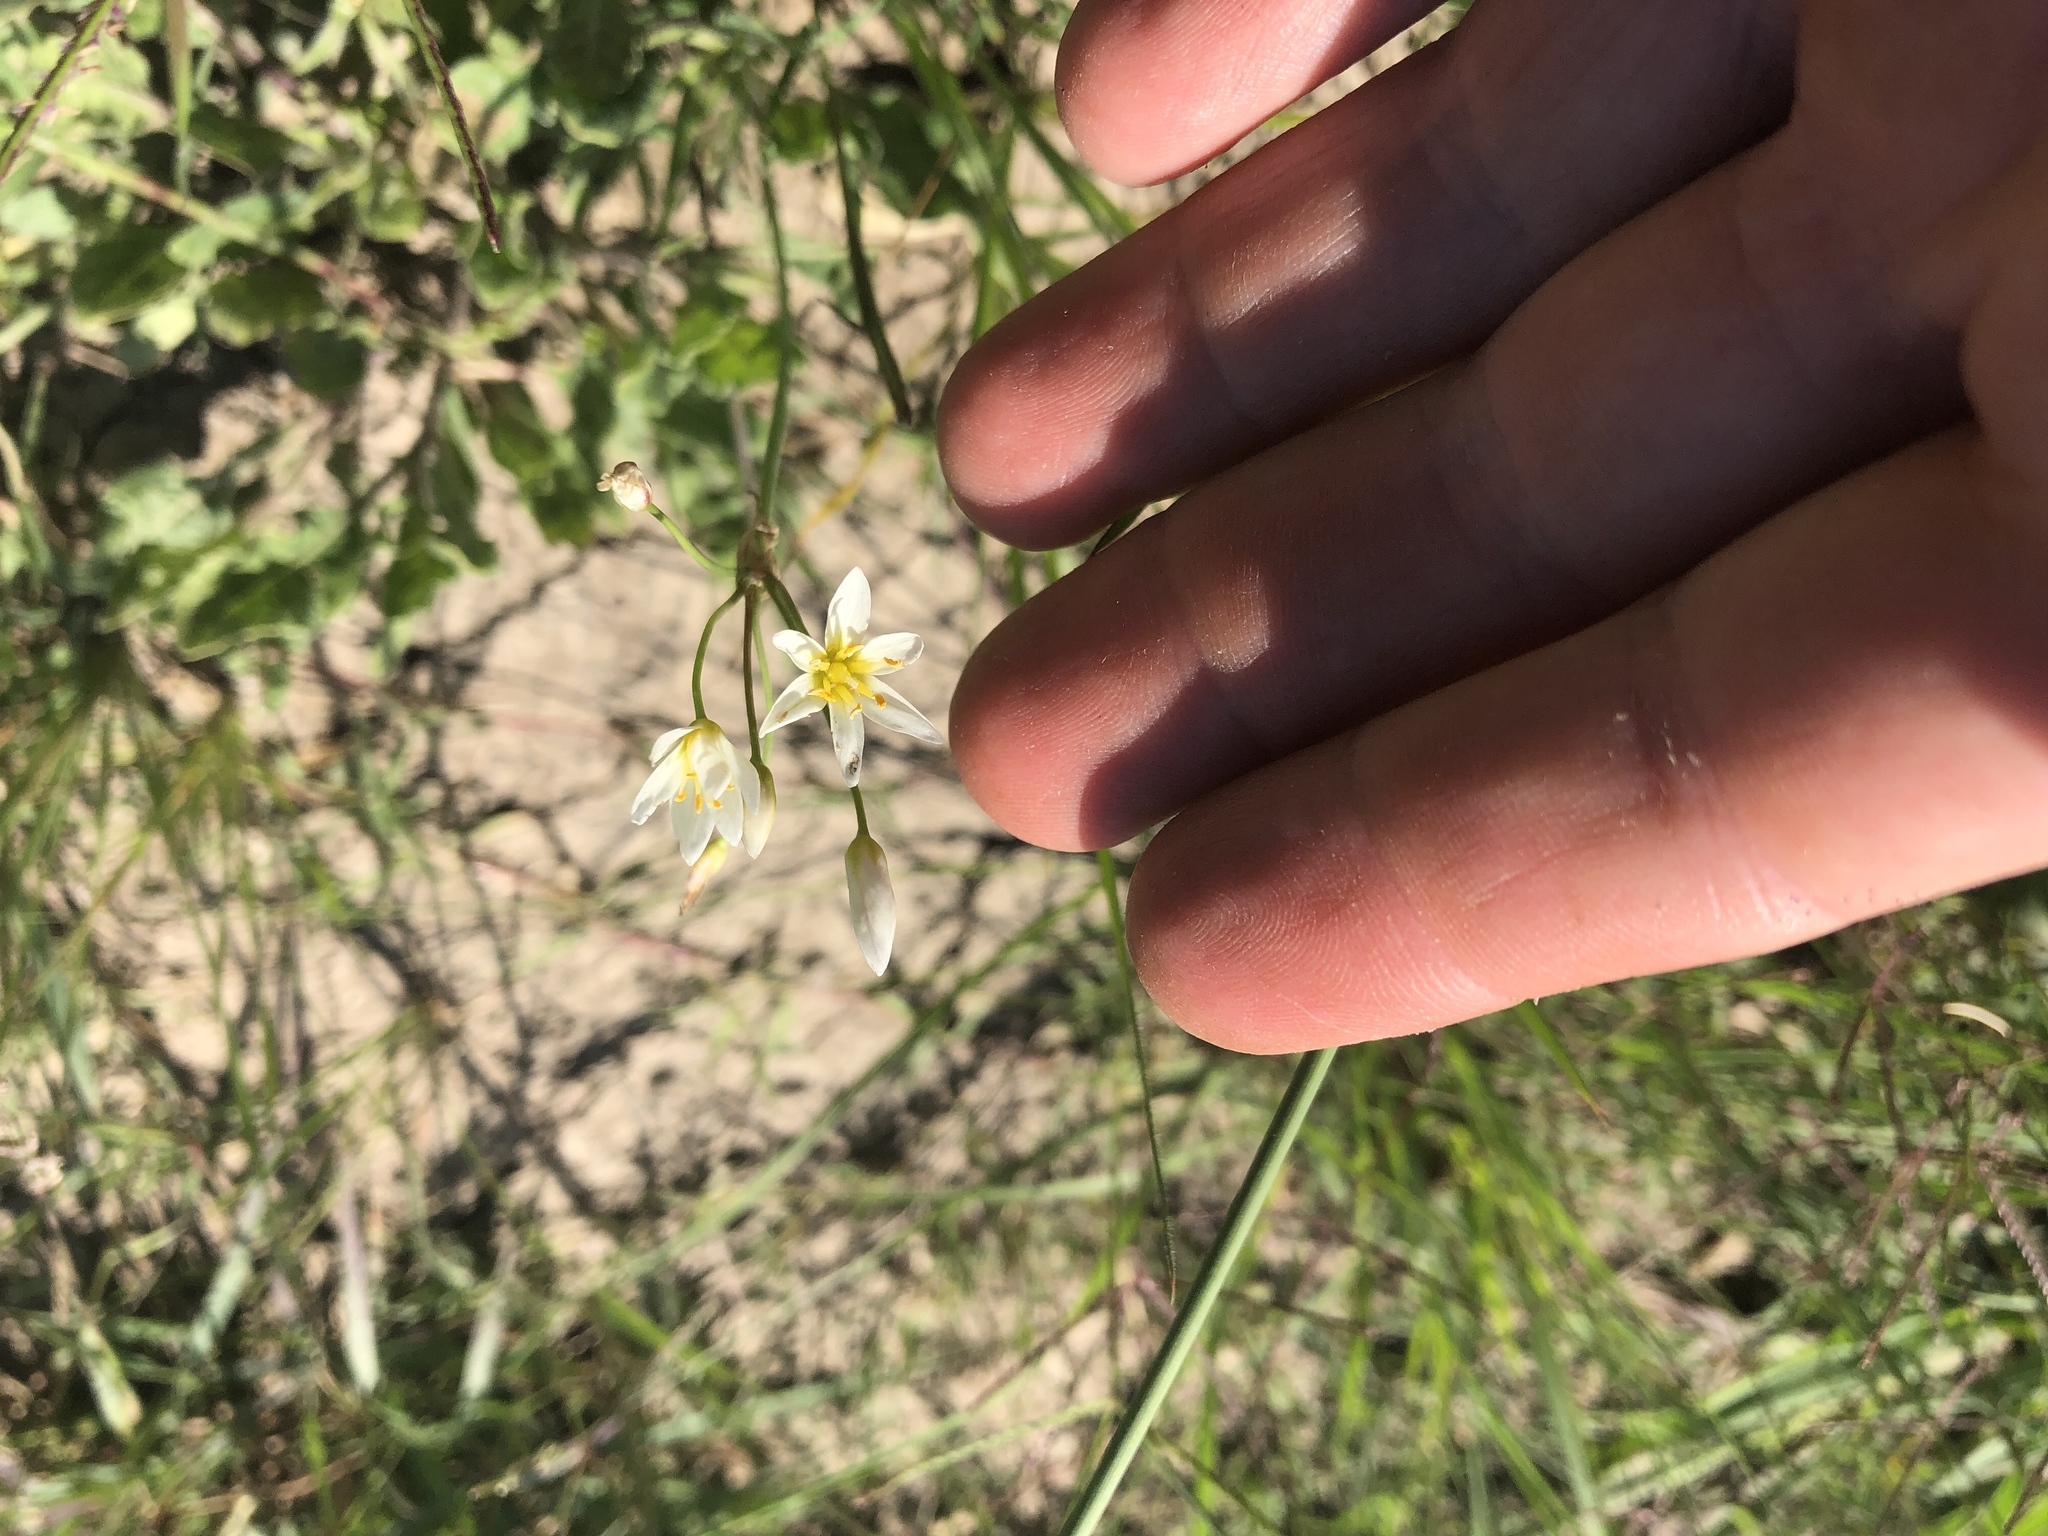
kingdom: Plantae
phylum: Tracheophyta
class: Liliopsida
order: Asparagales
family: Amaryllidaceae
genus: Nothoscordum
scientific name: Nothoscordum bivalve
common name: Crow-poison
